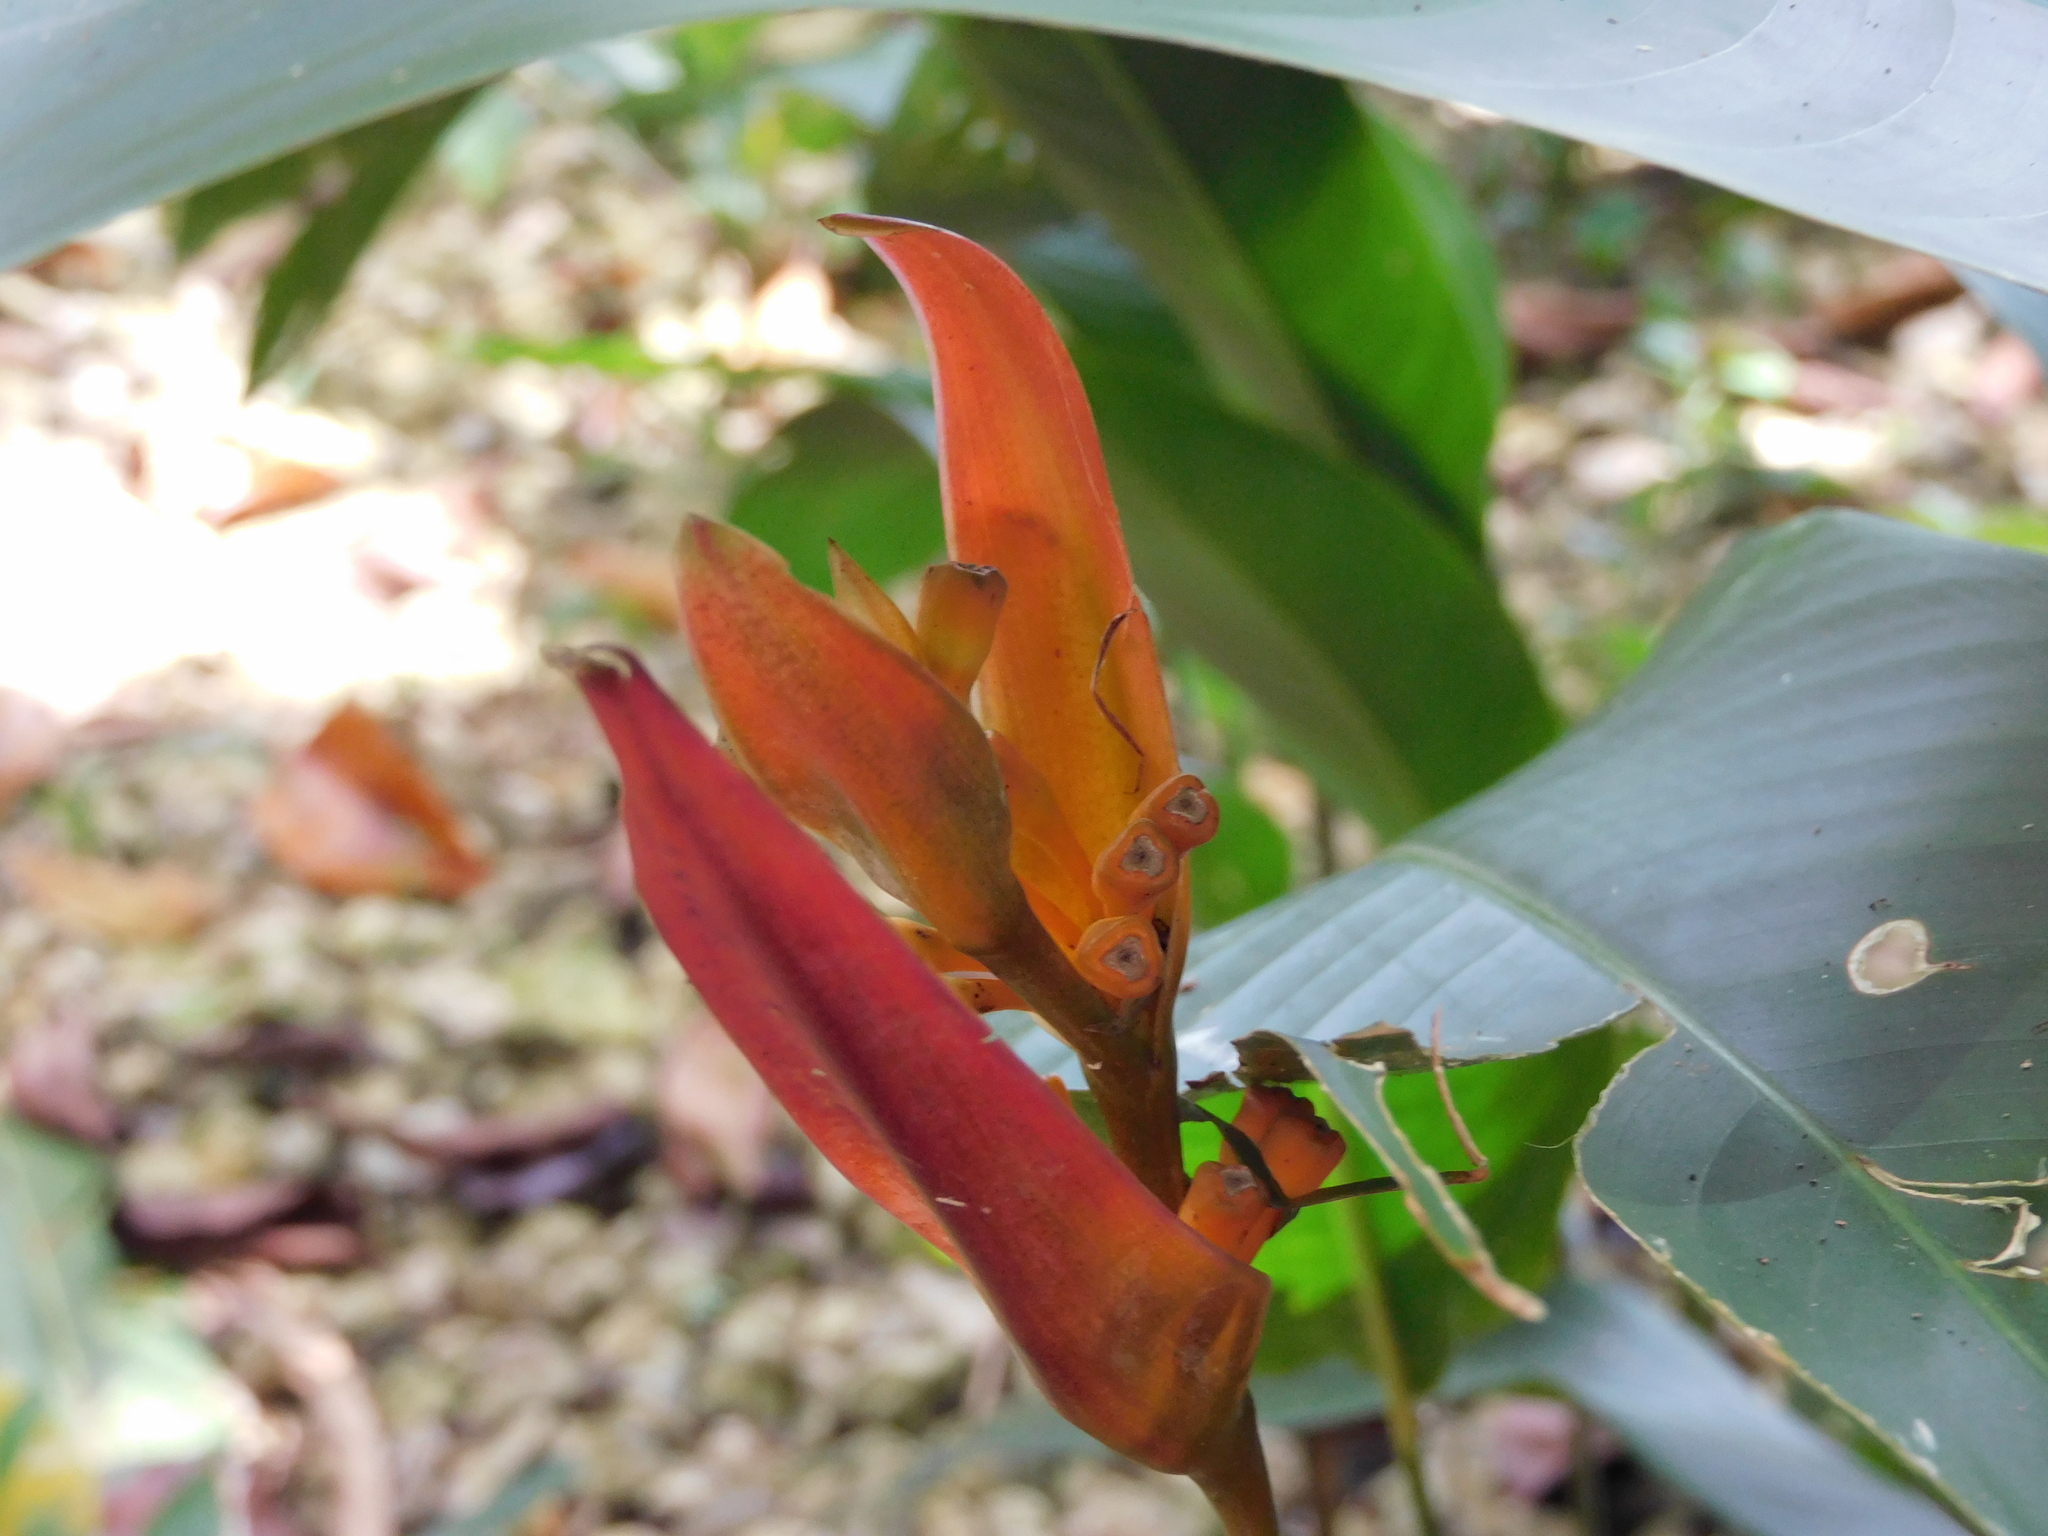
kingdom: Plantae
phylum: Tracheophyta
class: Liliopsida
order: Zingiberales
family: Heliconiaceae
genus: Heliconia
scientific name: Heliconia psittacorum
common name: Parrot's-flower
